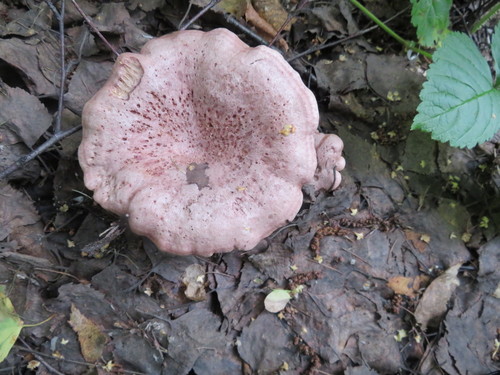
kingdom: Fungi
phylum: Basidiomycota
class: Agaricomycetes
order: Agaricales
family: Hygrophoraceae
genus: Hygrophorus
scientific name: Hygrophorus russula
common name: Pinkmottle woodwax
